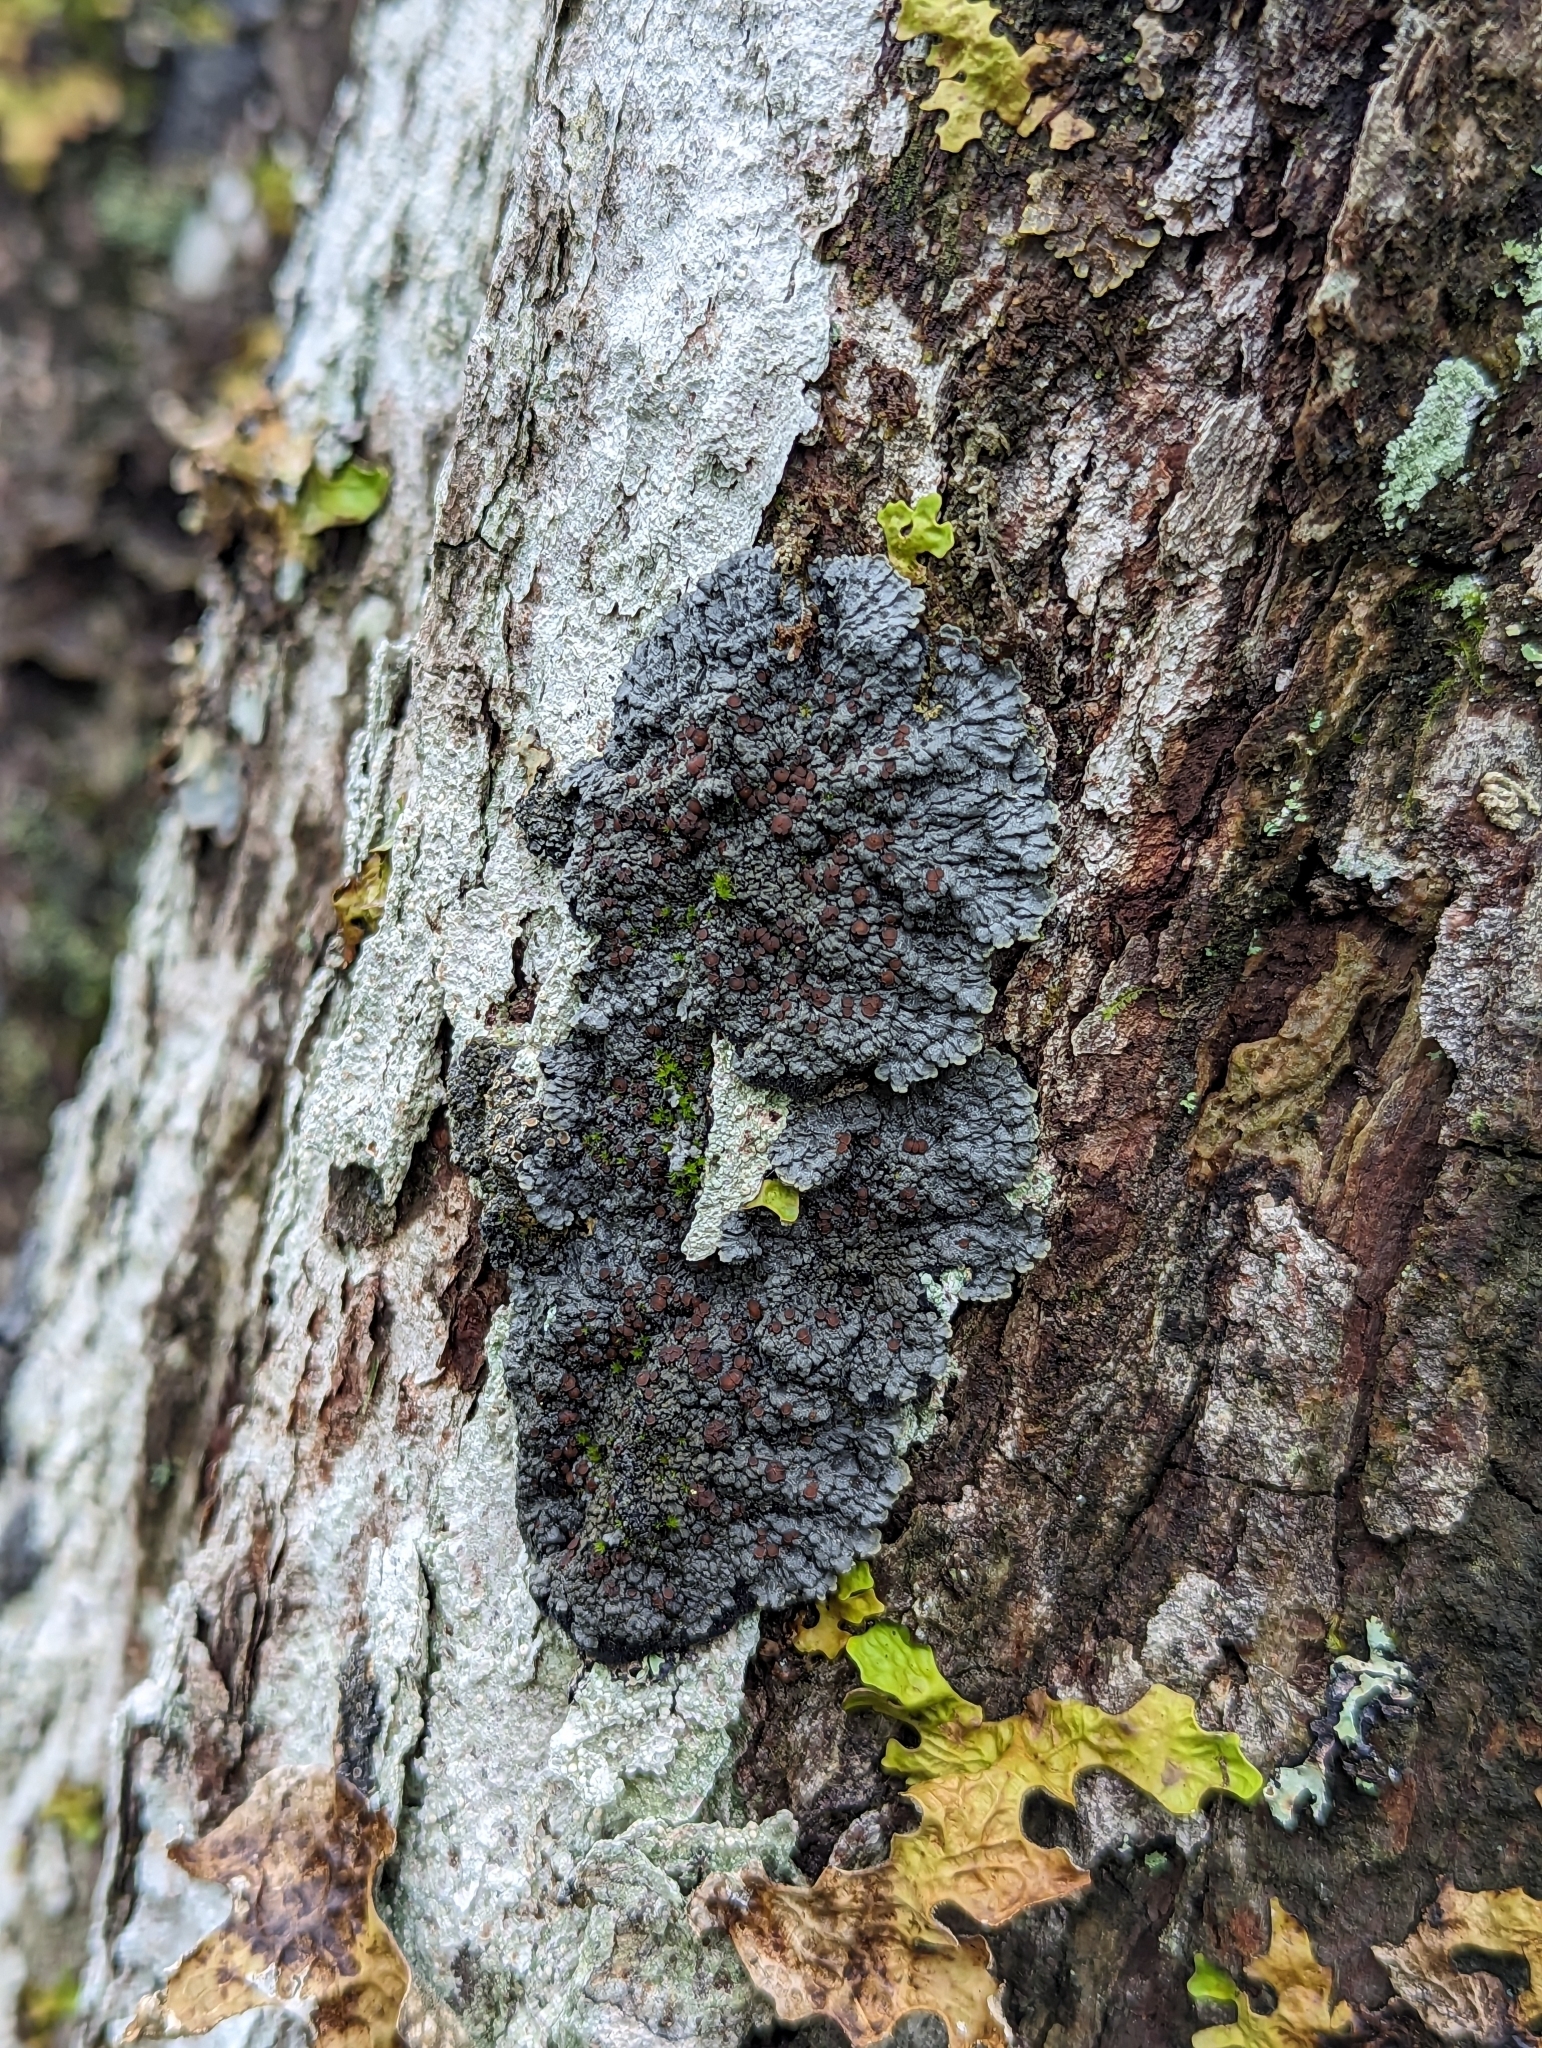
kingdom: Fungi
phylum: Ascomycota
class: Lecanoromycetes
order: Peltigerales
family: Pannariaceae
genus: Pectenia
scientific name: Pectenia plumbea
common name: Bladder stalks
